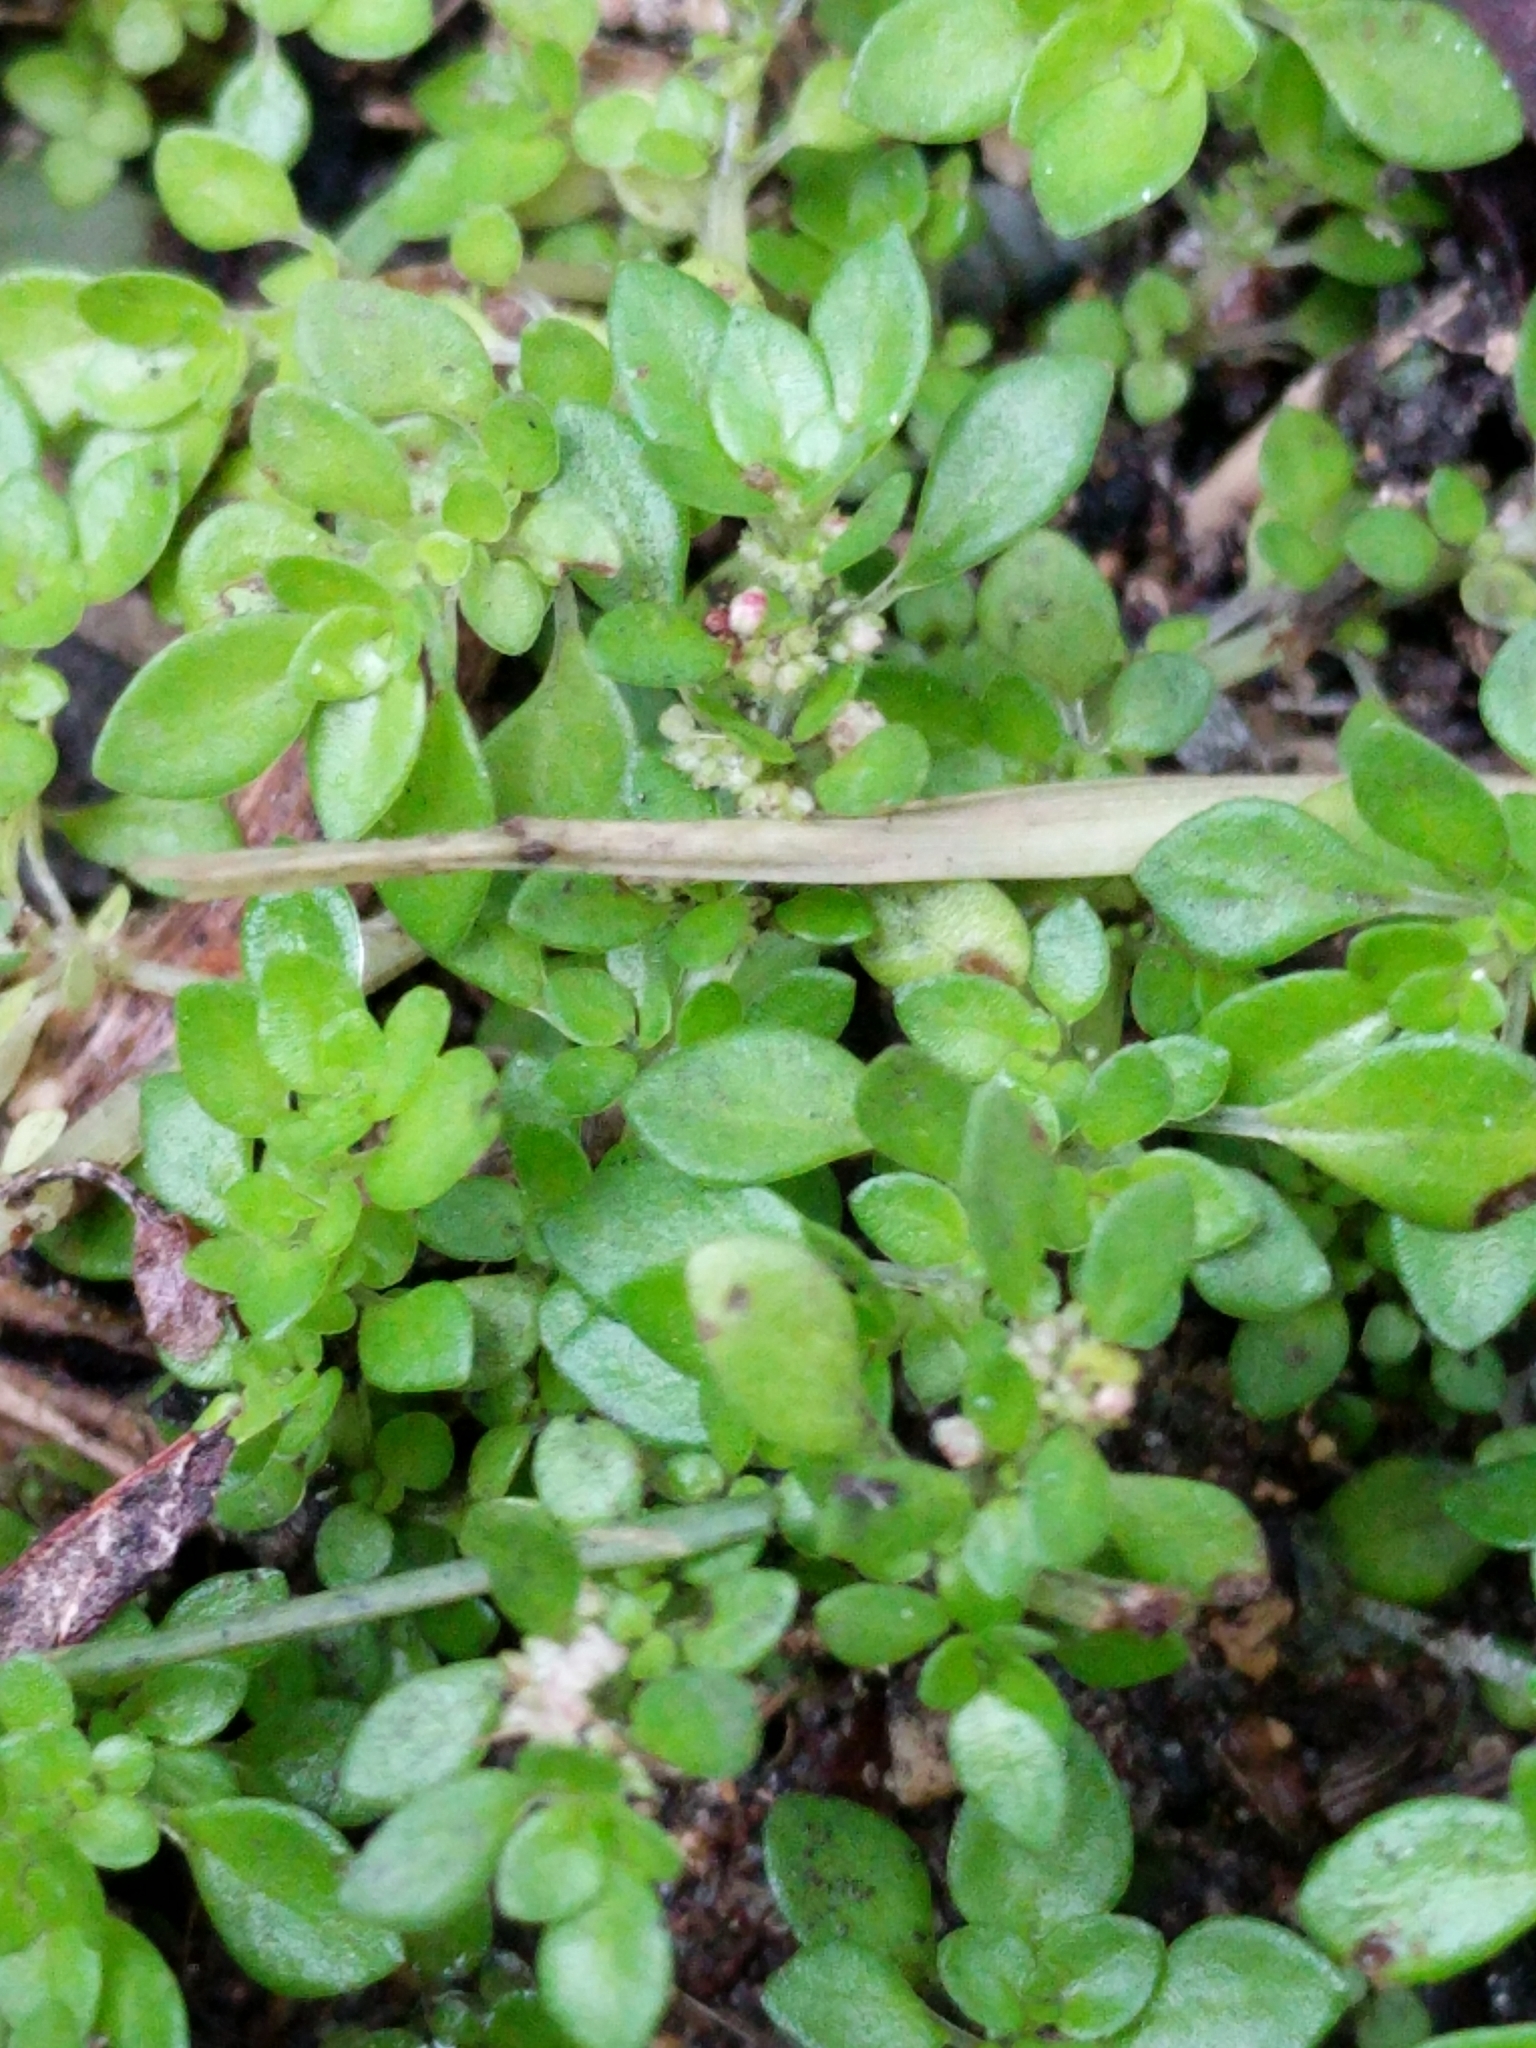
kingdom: Plantae
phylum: Tracheophyta
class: Magnoliopsida
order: Rosales
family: Urticaceae
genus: Pilea
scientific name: Pilea microphylla
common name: Artillery-plant
